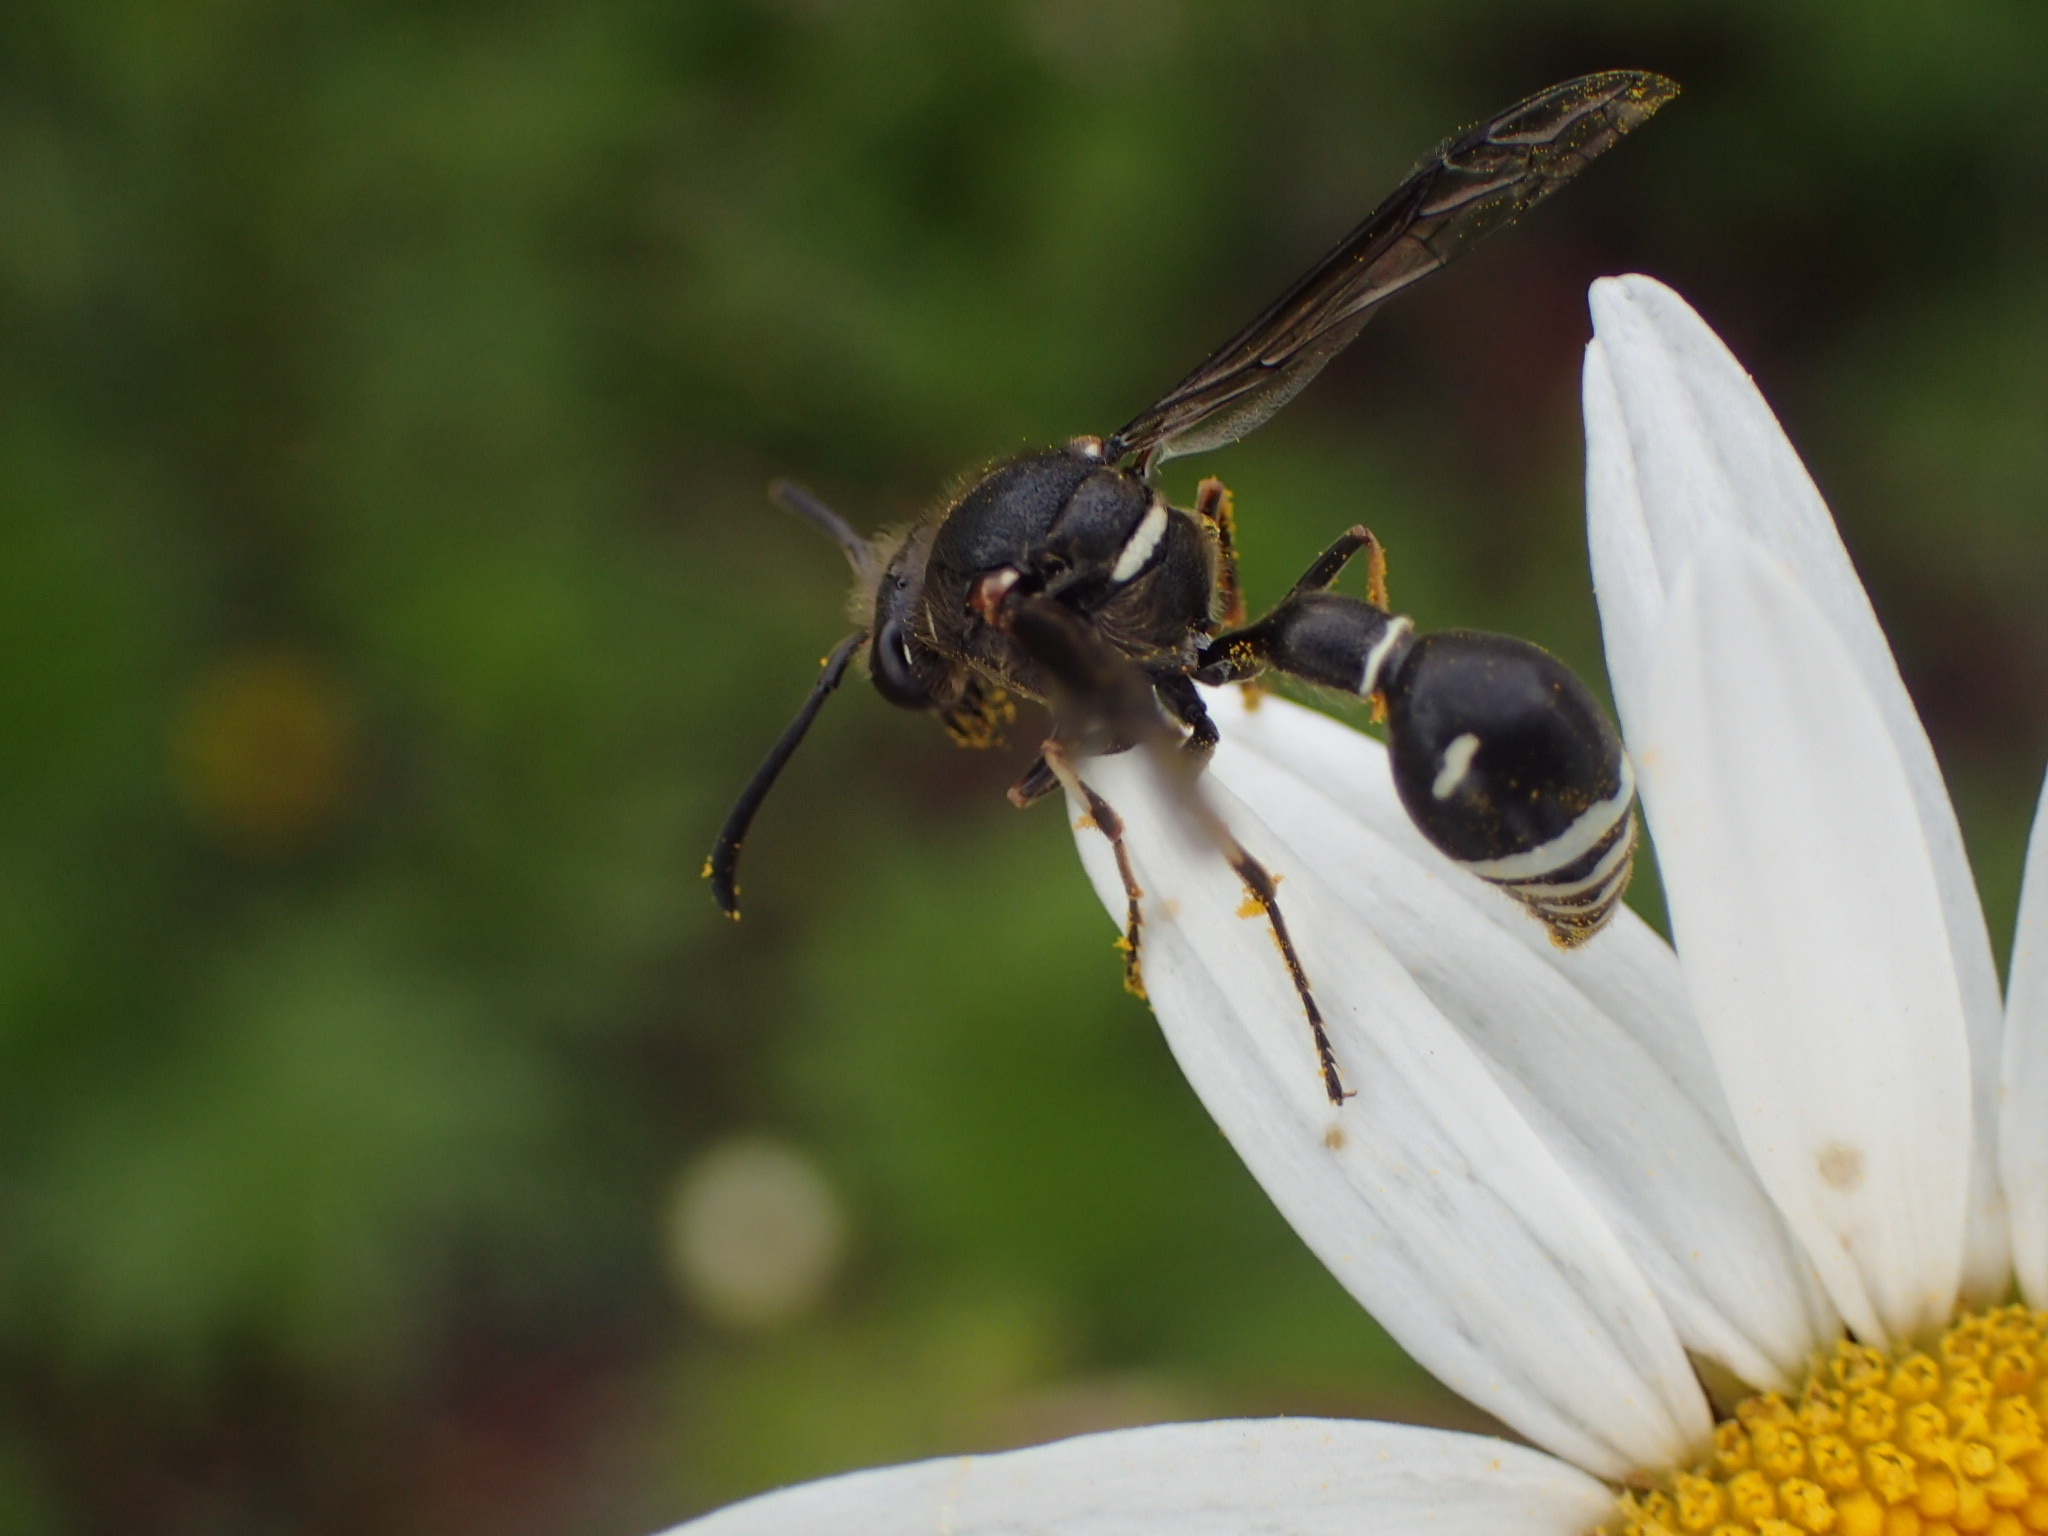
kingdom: Animalia
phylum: Arthropoda
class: Insecta
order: Hymenoptera
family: Vespidae
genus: Eumenes
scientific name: Eumenes crucifera
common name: Cross potter wasp
